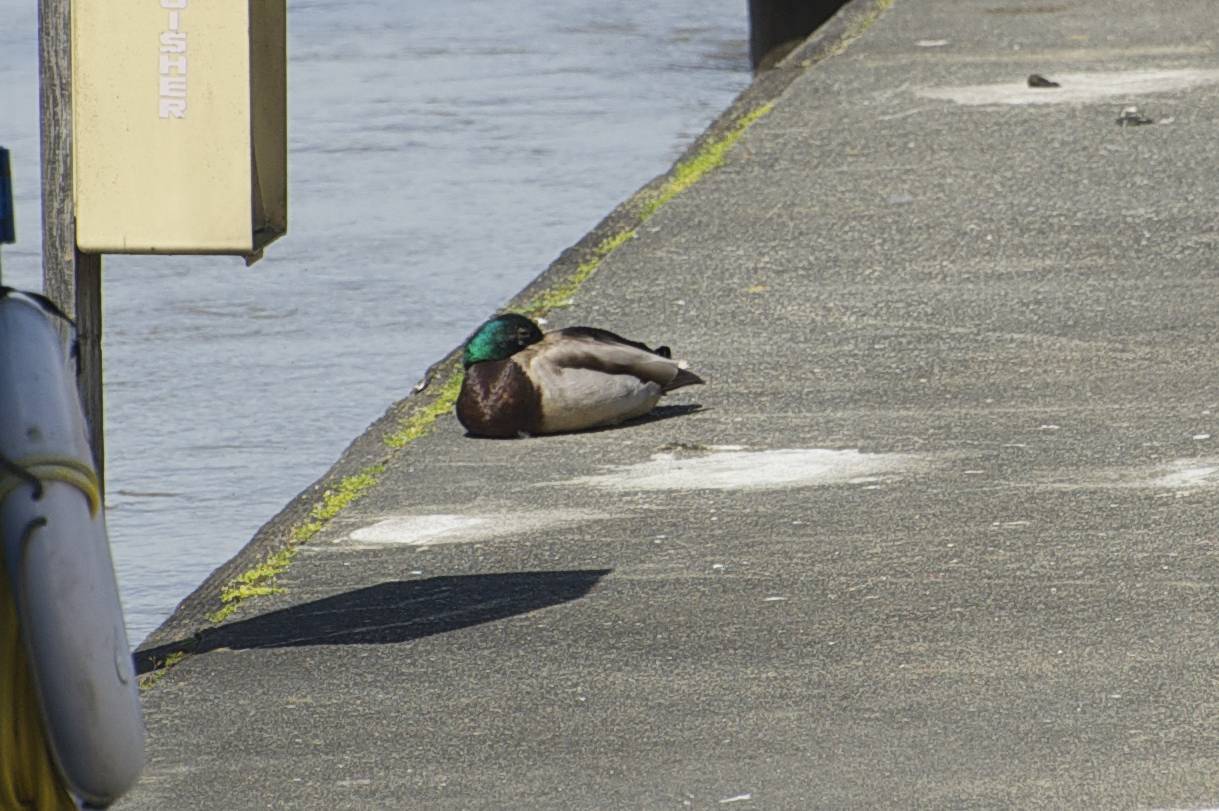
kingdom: Animalia
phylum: Chordata
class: Aves
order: Anseriformes
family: Anatidae
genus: Anas
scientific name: Anas platyrhynchos
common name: Mallard
